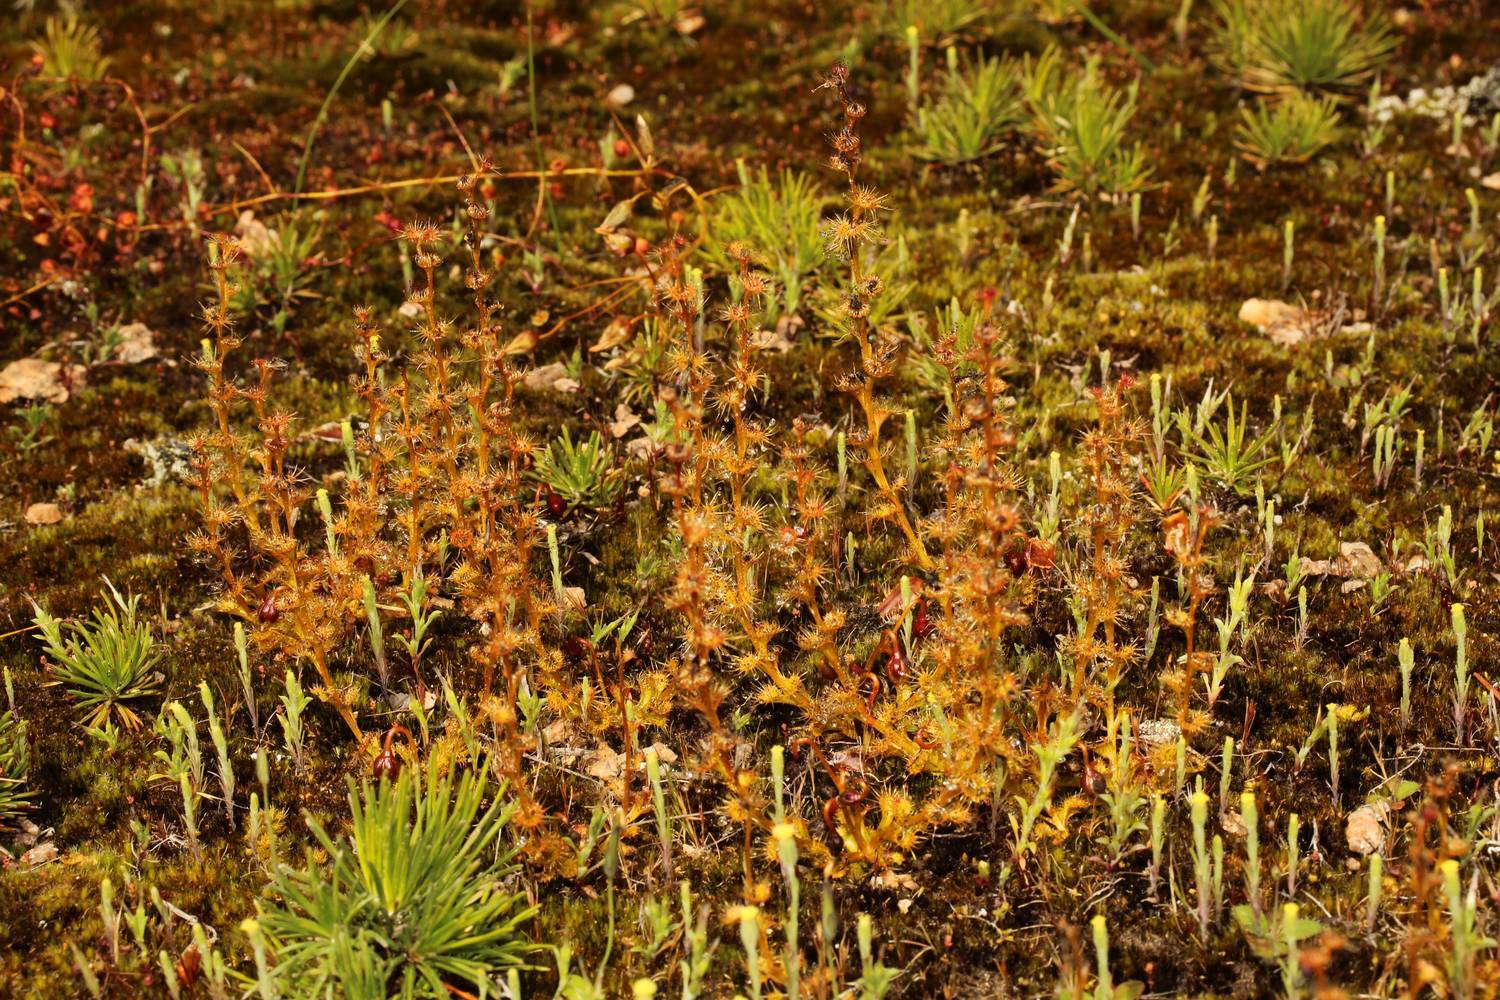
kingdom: Plantae
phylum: Tracheophyta
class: Magnoliopsida
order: Caryophyllales
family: Droseraceae
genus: Drosera
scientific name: Drosera ramellosa
